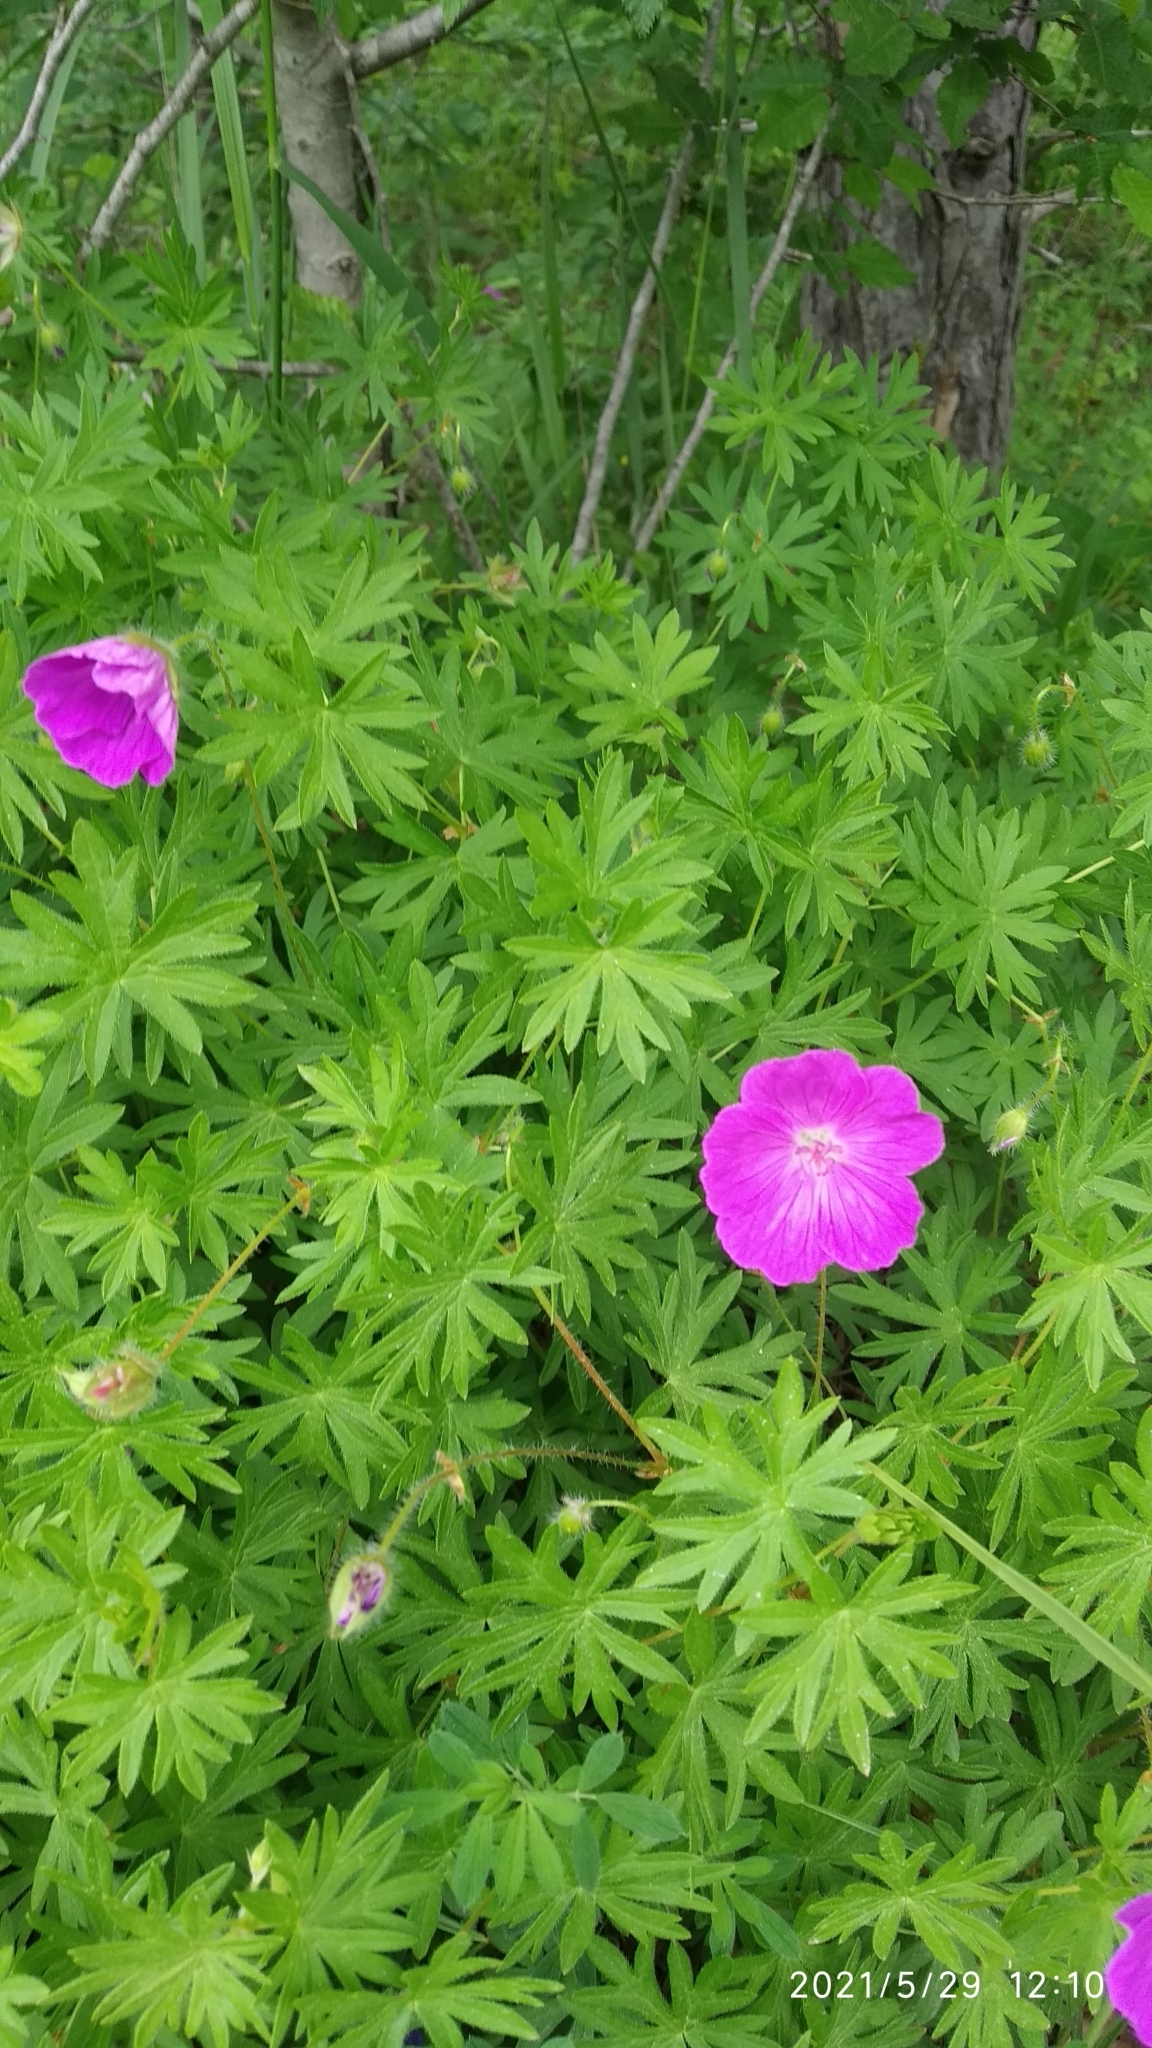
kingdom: Plantae
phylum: Tracheophyta
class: Magnoliopsida
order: Geraniales
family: Geraniaceae
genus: Geranium
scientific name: Geranium sanguineum
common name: Bloody crane's-bill
